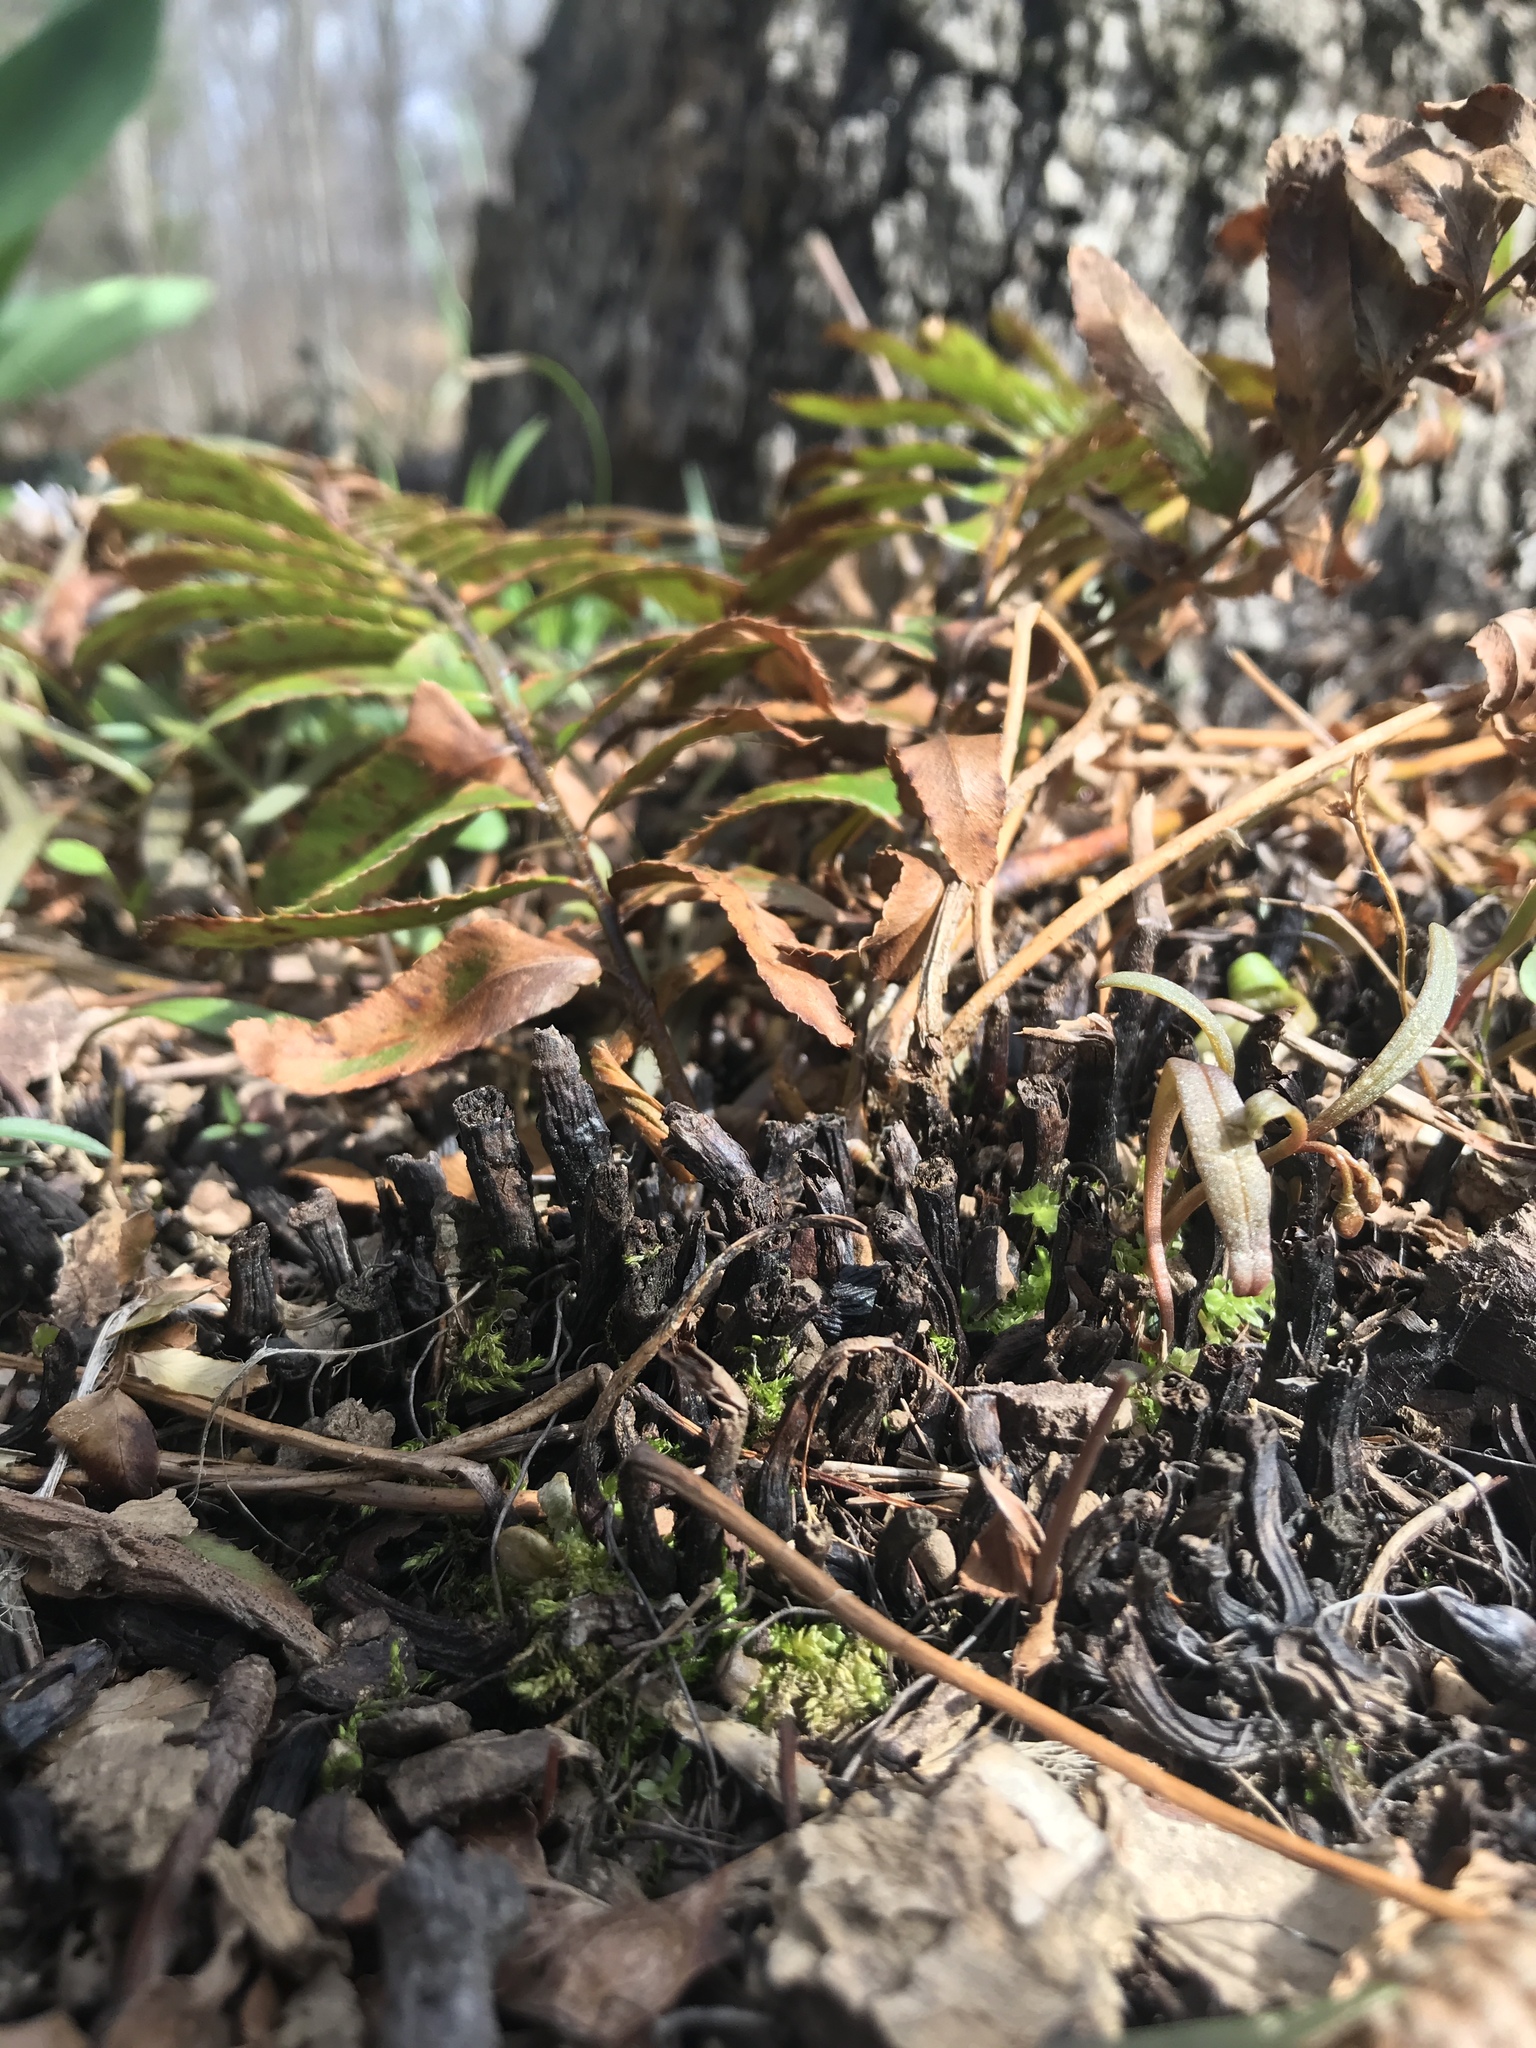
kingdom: Plantae
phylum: Tracheophyta
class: Polypodiopsida
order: Polypodiales
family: Dryopteridaceae
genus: Polystichum
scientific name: Polystichum acrostichoides
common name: Christmas fern
